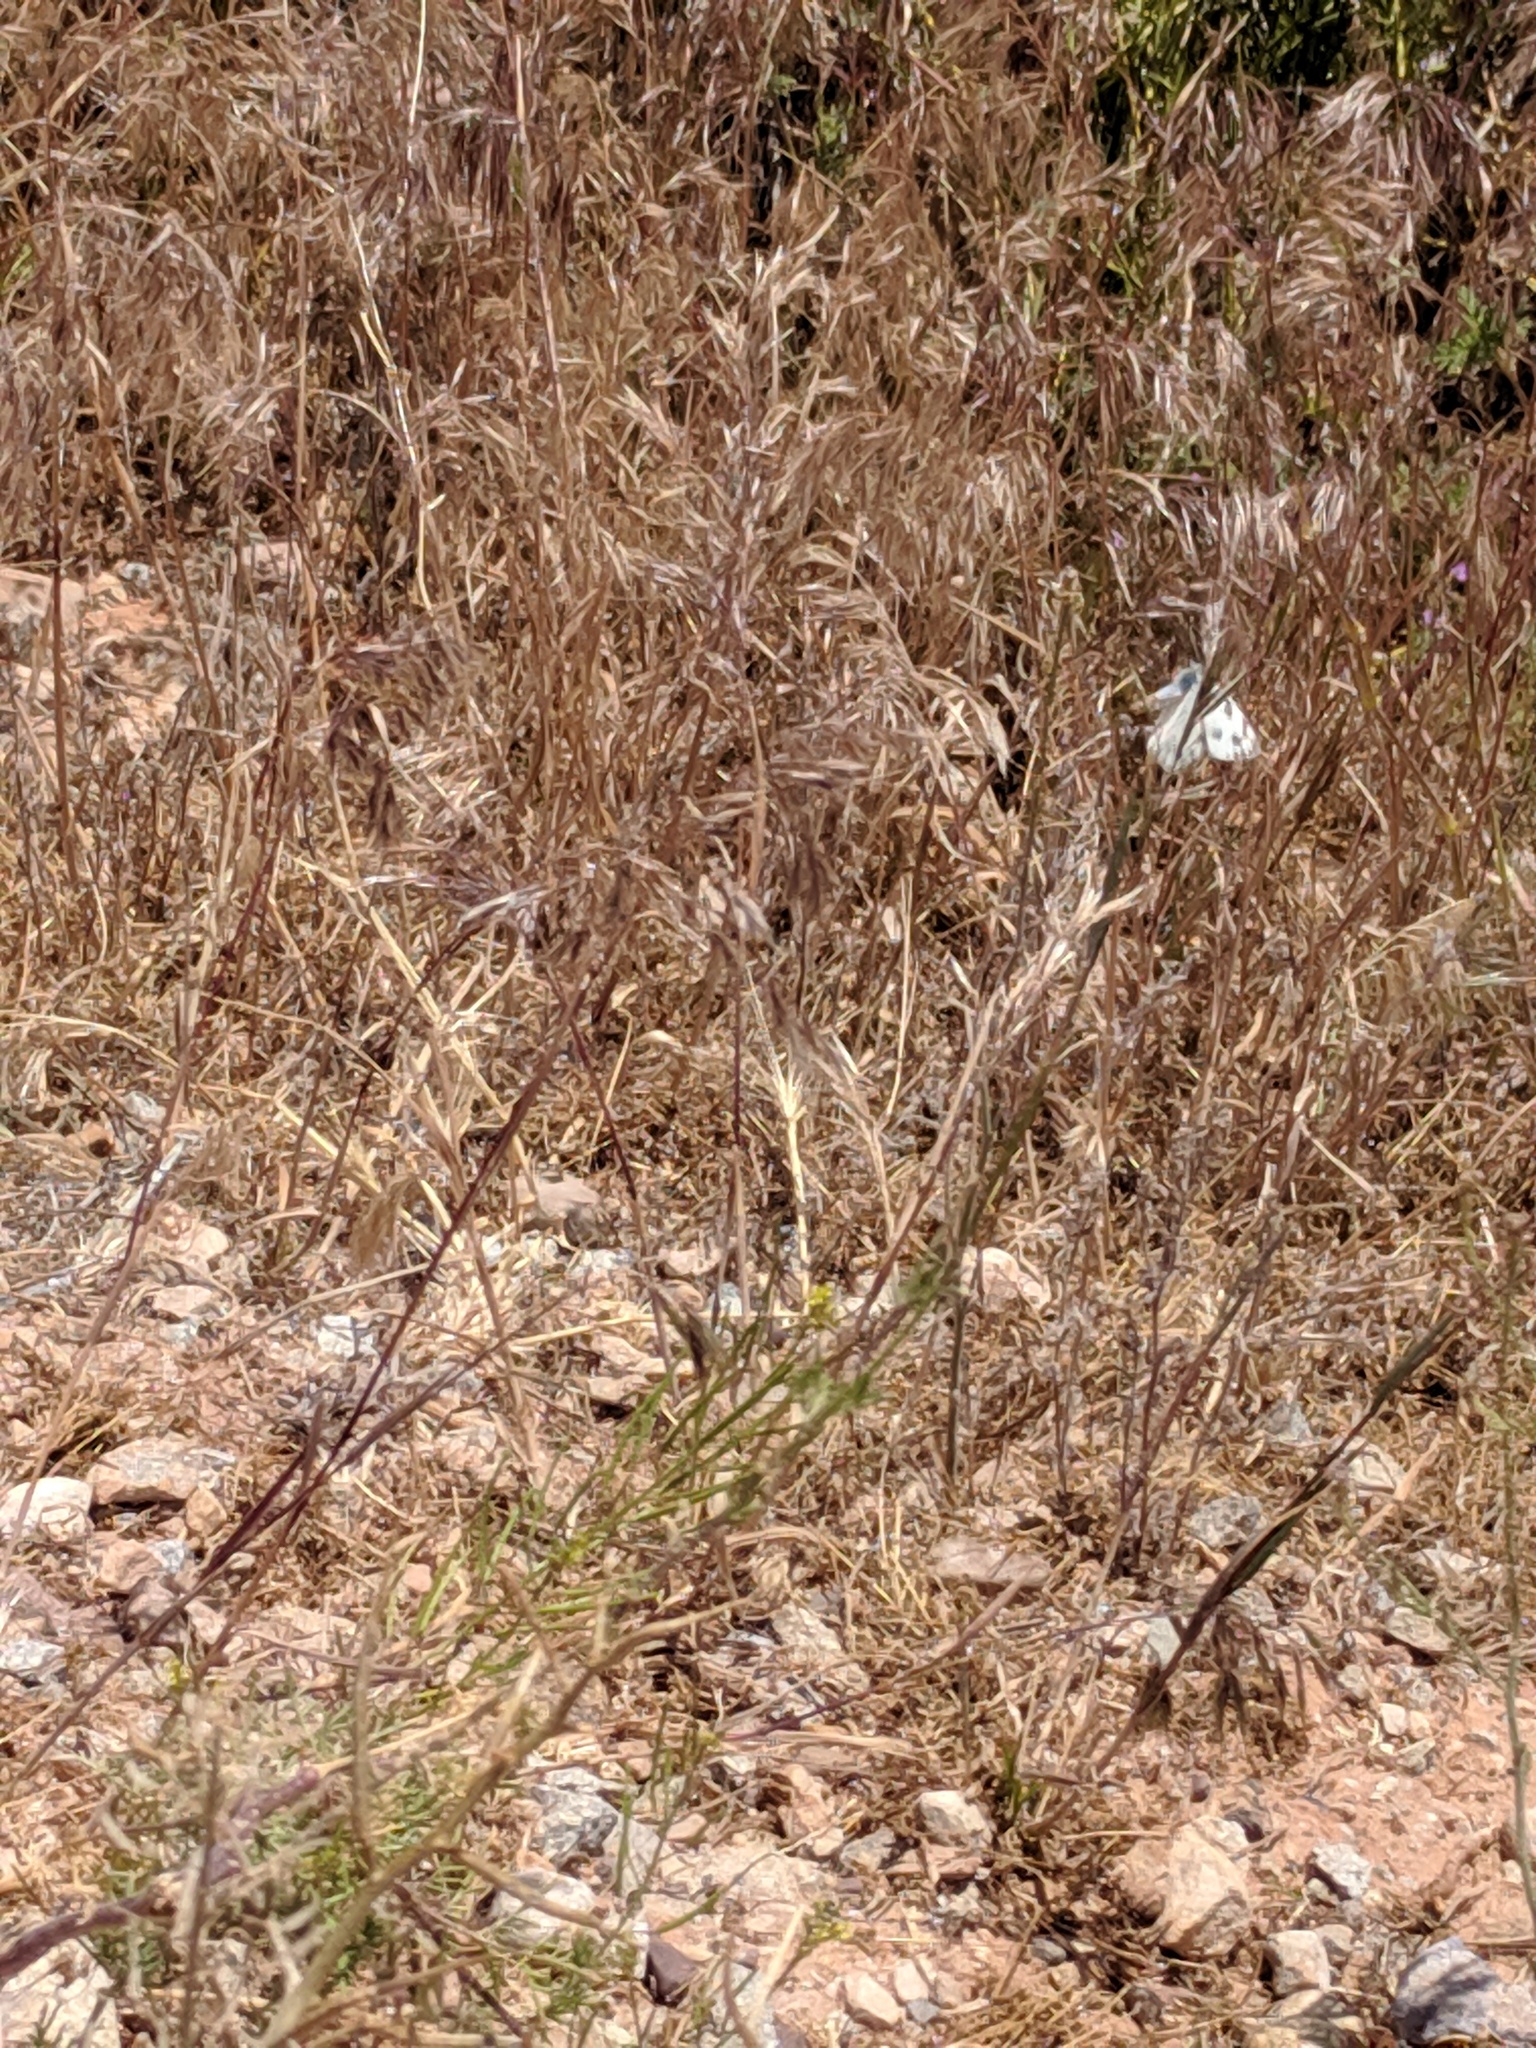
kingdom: Animalia
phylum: Arthropoda
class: Insecta
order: Lepidoptera
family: Pieridae
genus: Pontia
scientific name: Pontia protodice
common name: Checkered white
